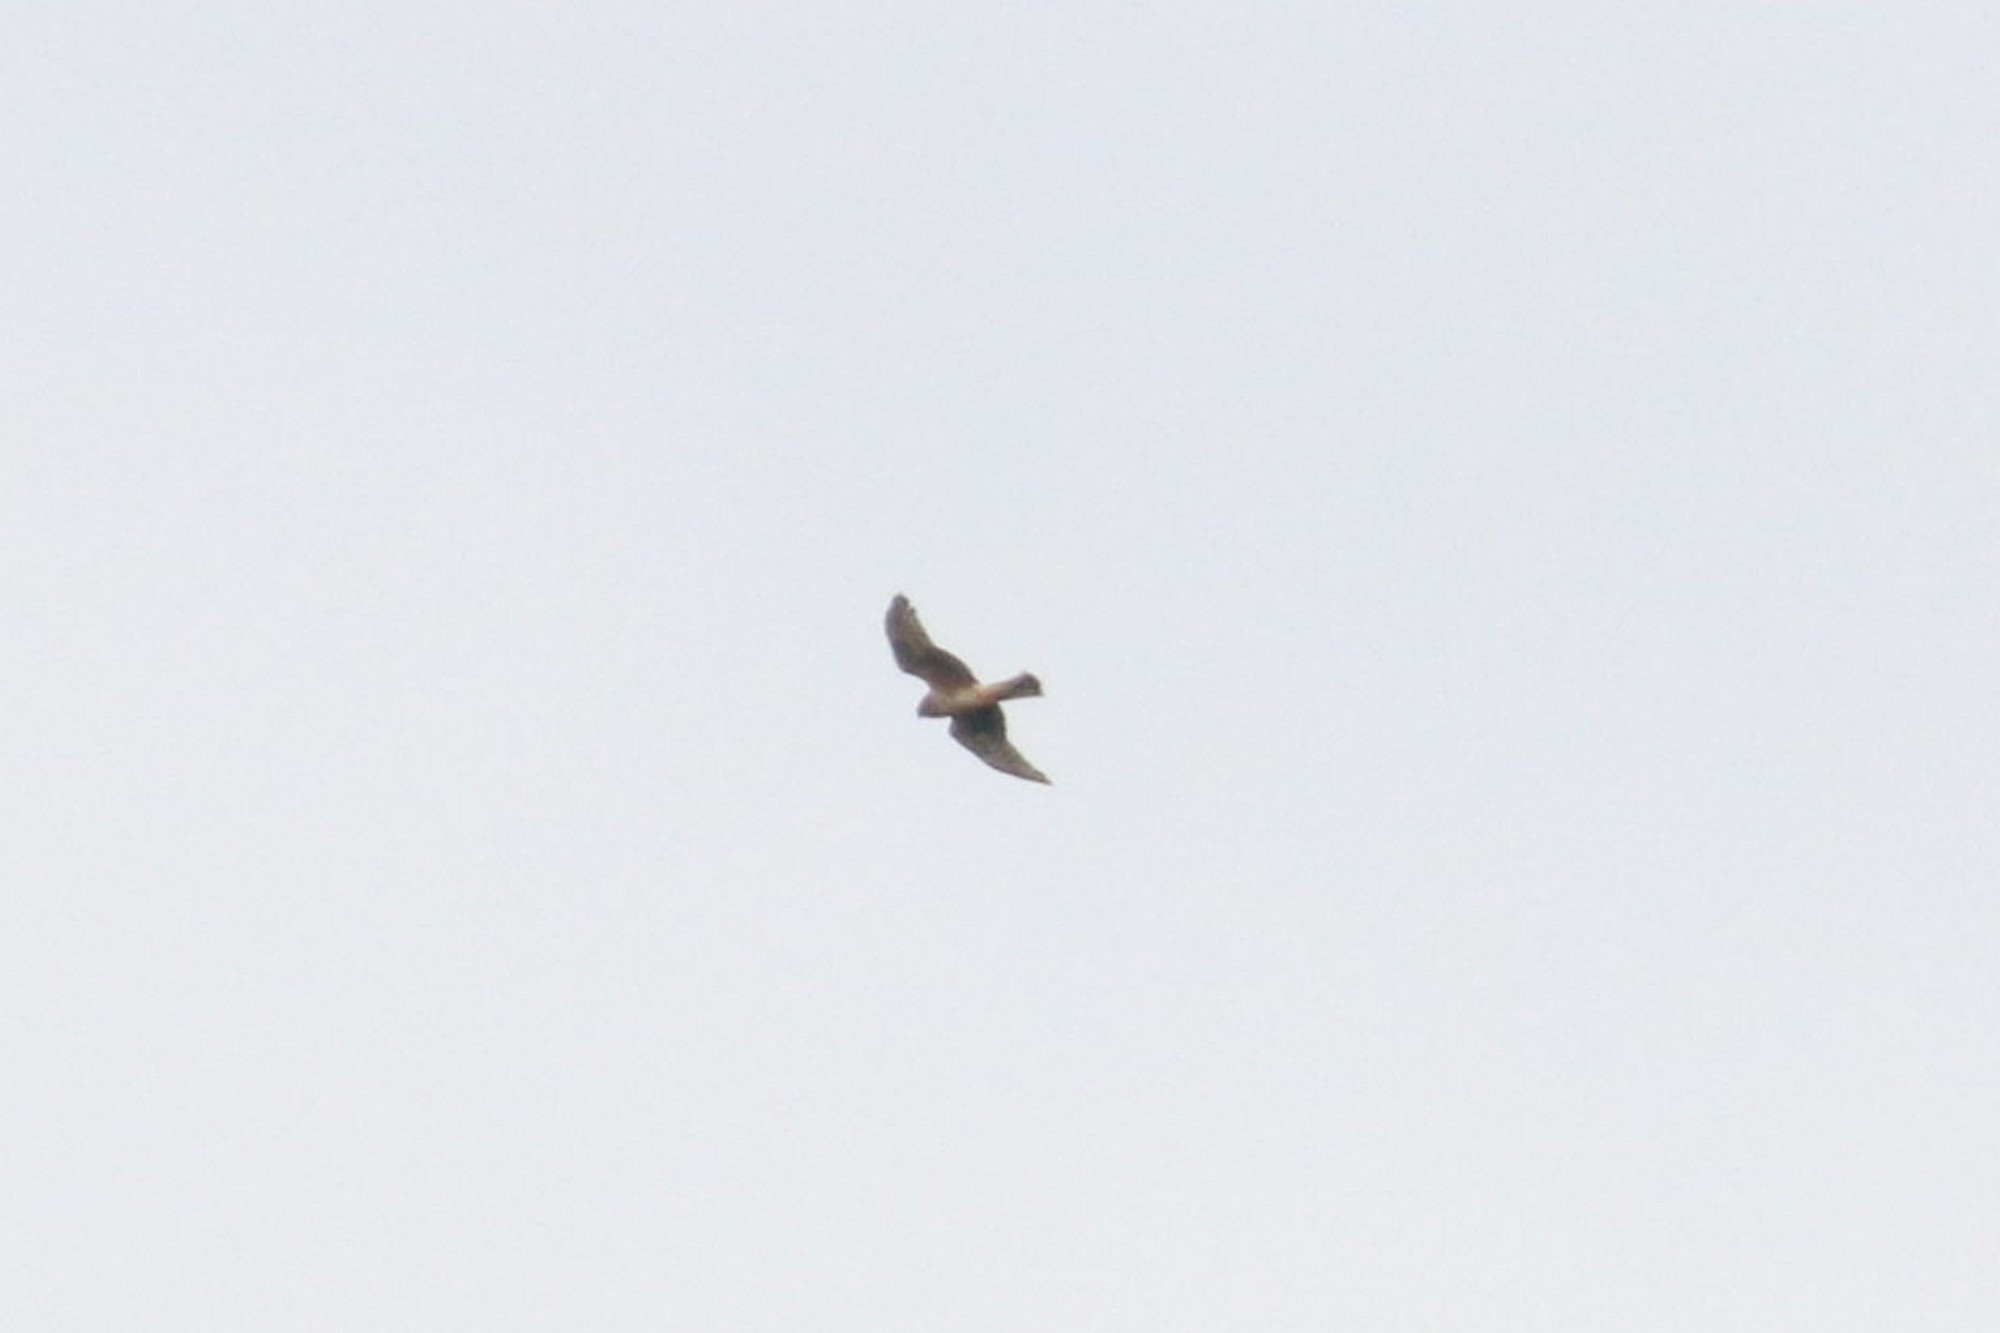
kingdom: Animalia
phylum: Chordata
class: Aves
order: Accipitriformes
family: Accipitridae
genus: Circus
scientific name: Circus cyaneus
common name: Hen harrier
